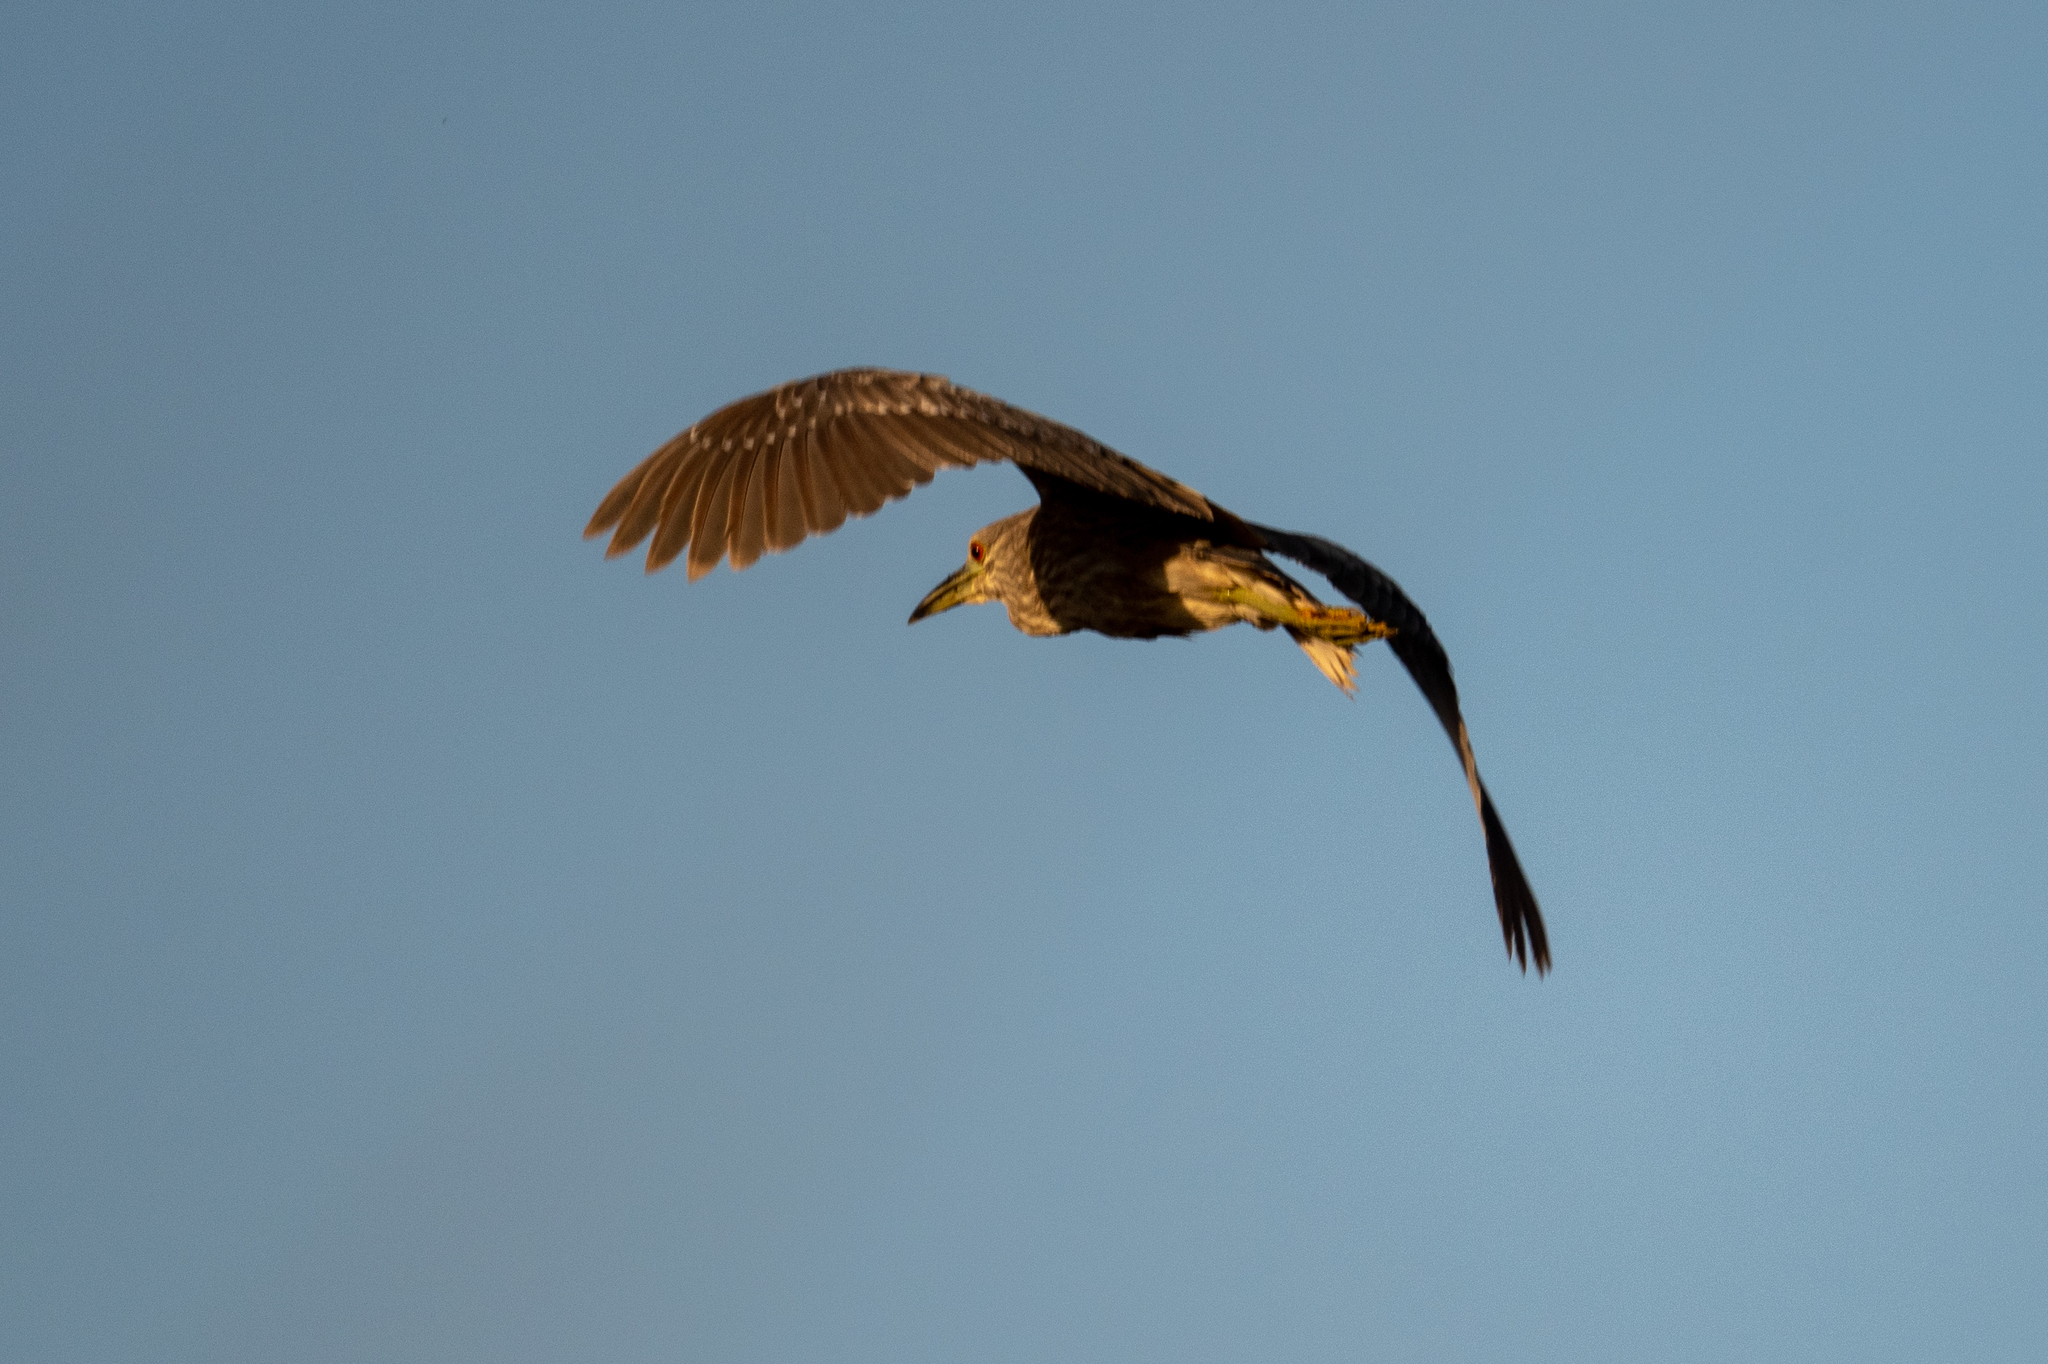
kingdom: Animalia
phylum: Chordata
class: Aves
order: Pelecaniformes
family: Ardeidae
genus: Nycticorax
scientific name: Nycticorax nycticorax
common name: Black-crowned night heron
